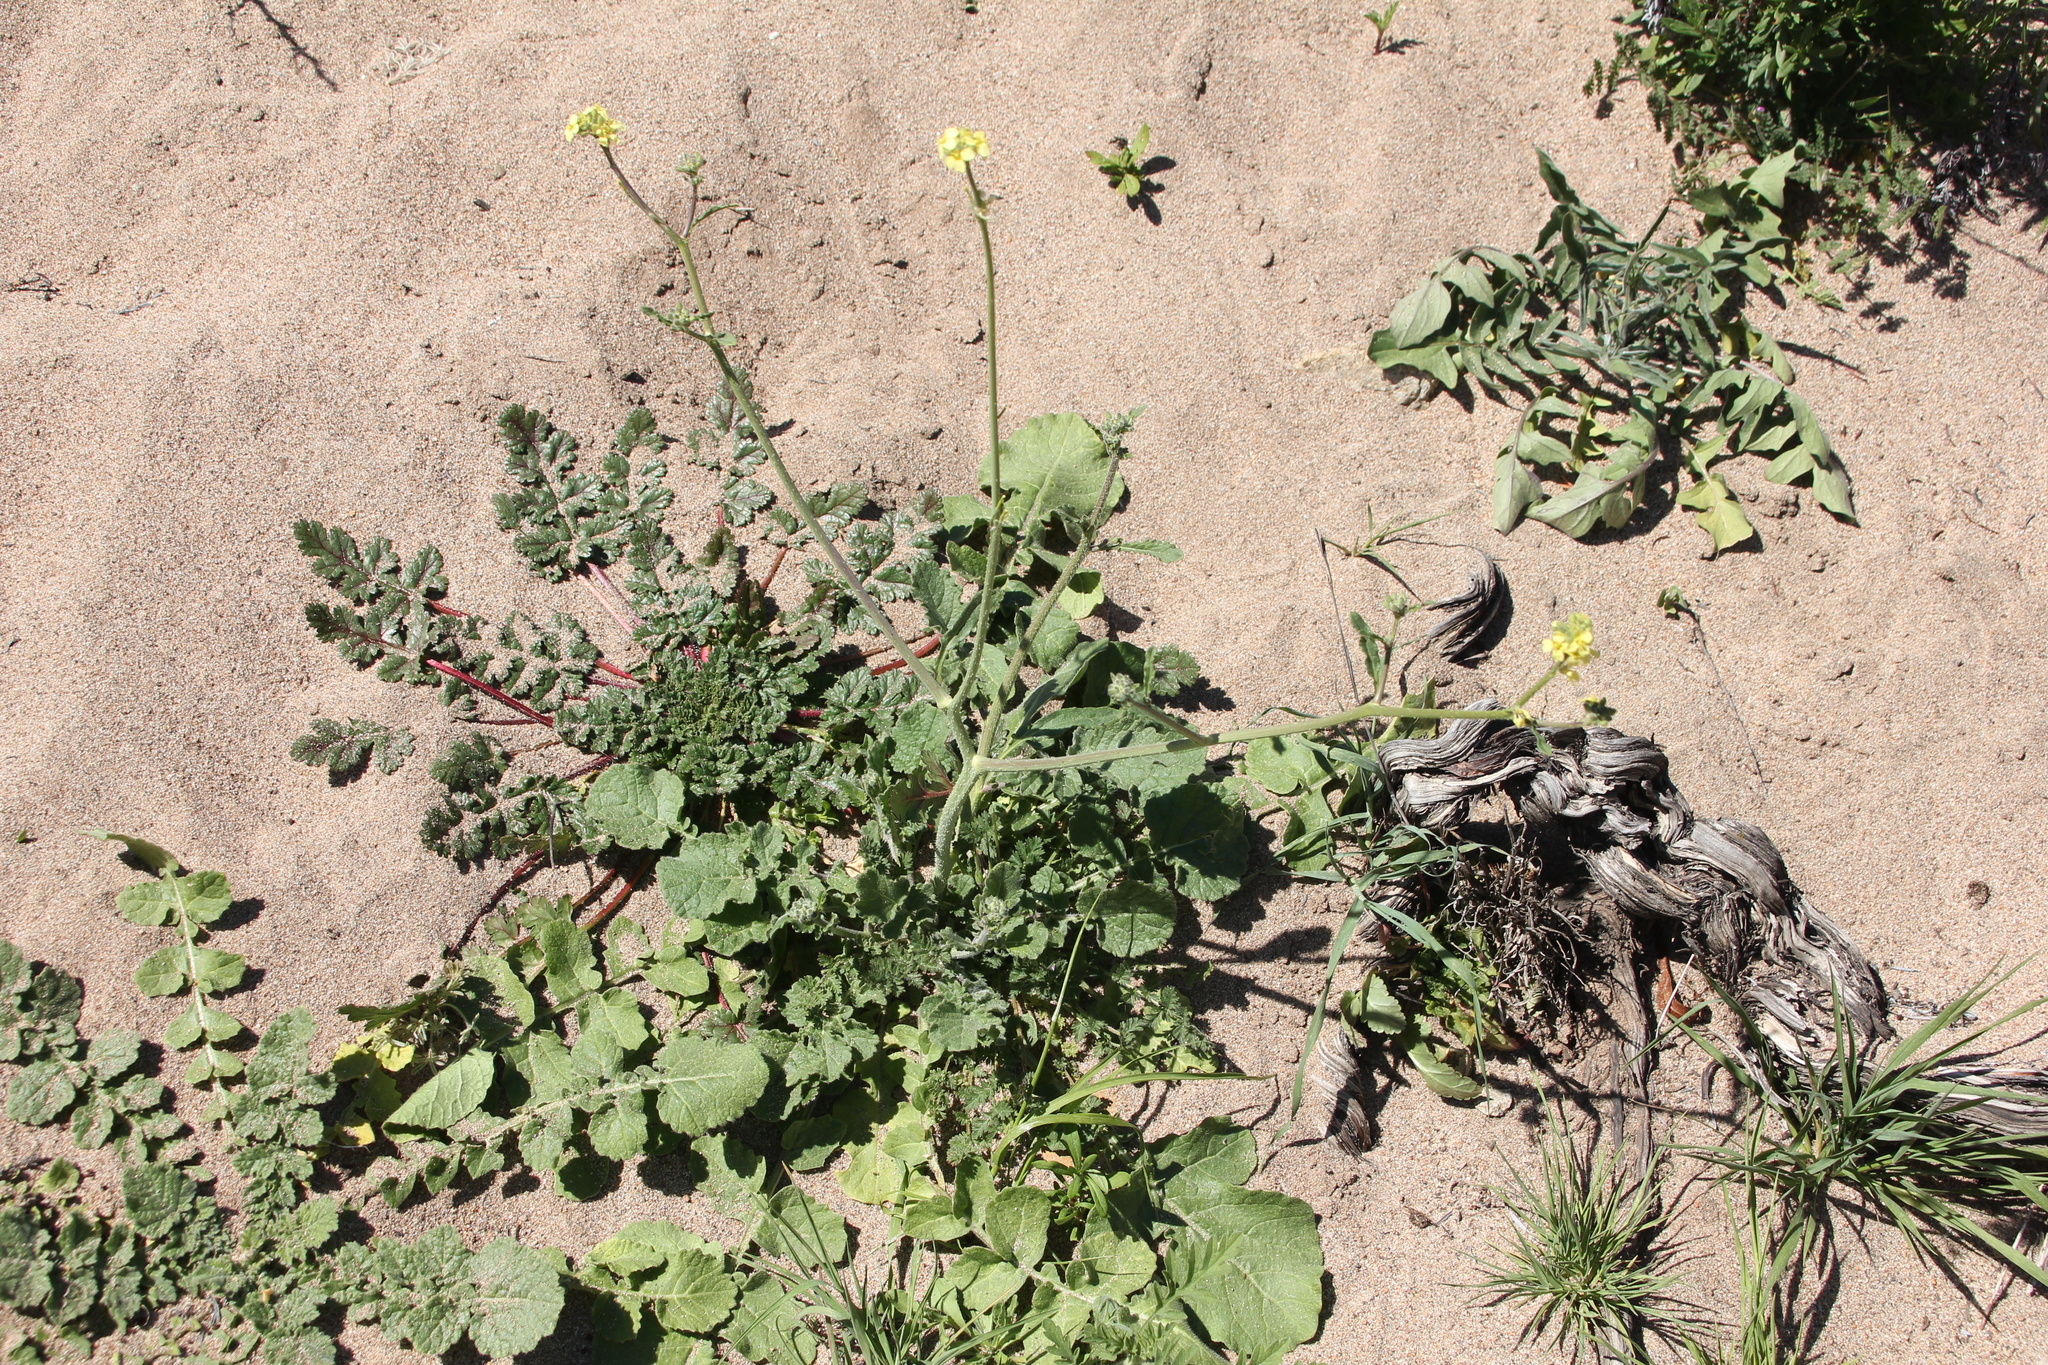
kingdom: Plantae
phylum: Tracheophyta
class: Magnoliopsida
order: Brassicales
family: Brassicaceae
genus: Hirschfeldia
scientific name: Hirschfeldia incana
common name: Hoary mustard
